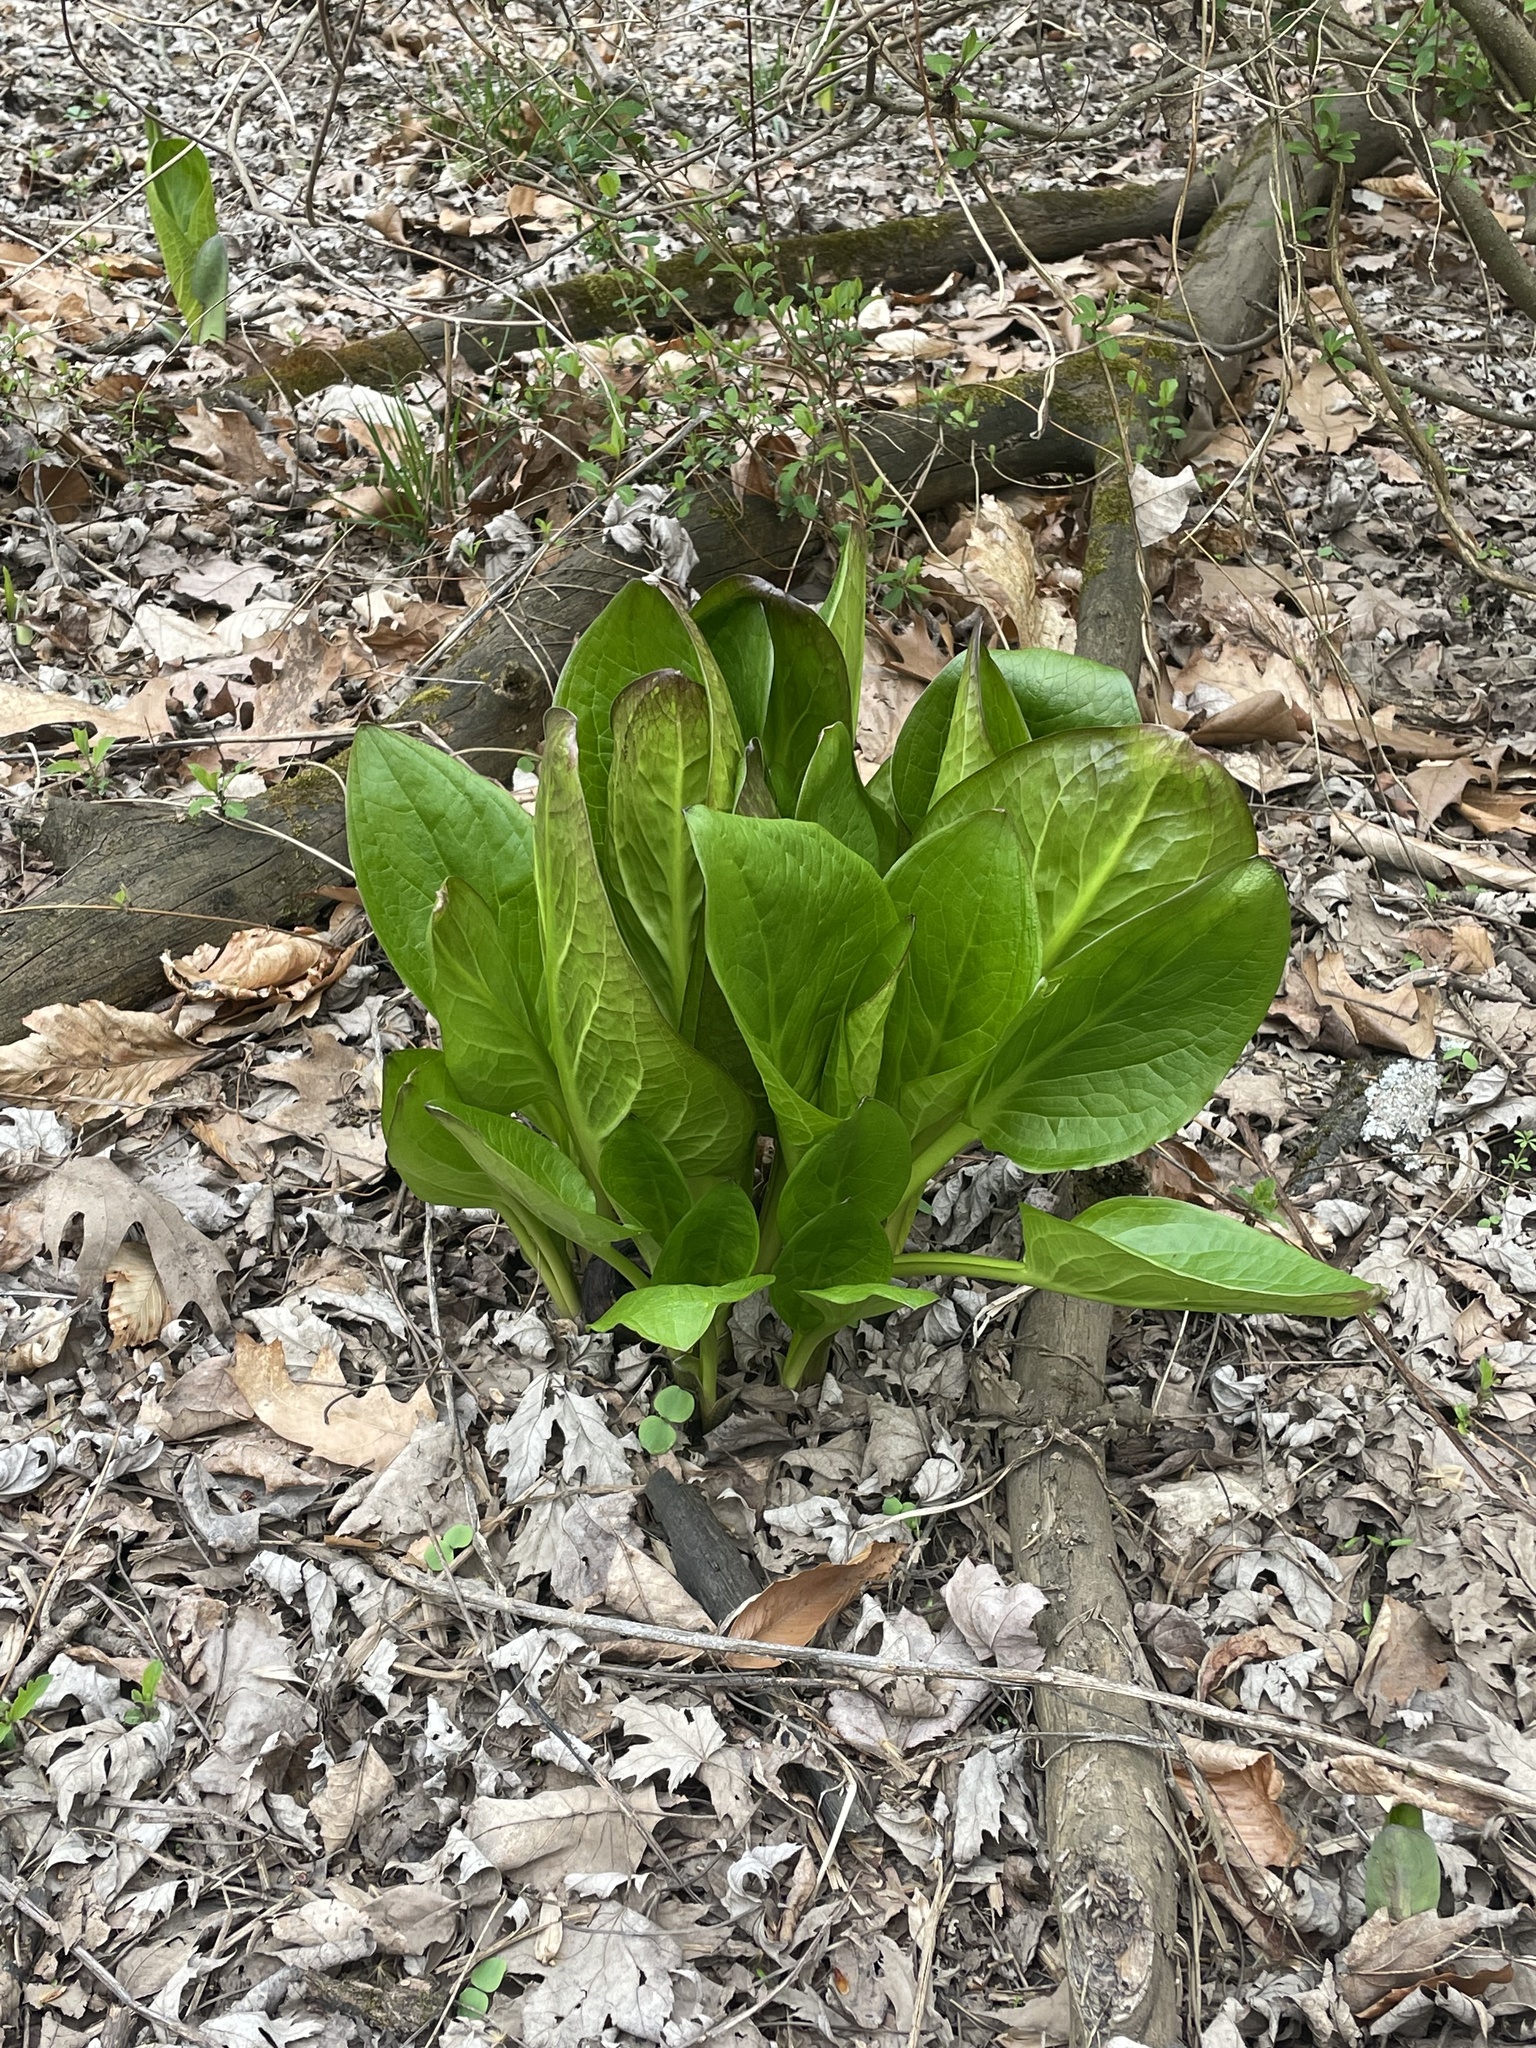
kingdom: Plantae
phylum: Tracheophyta
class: Liliopsida
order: Alismatales
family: Araceae
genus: Symplocarpus
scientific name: Symplocarpus foetidus
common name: Eastern skunk cabbage
